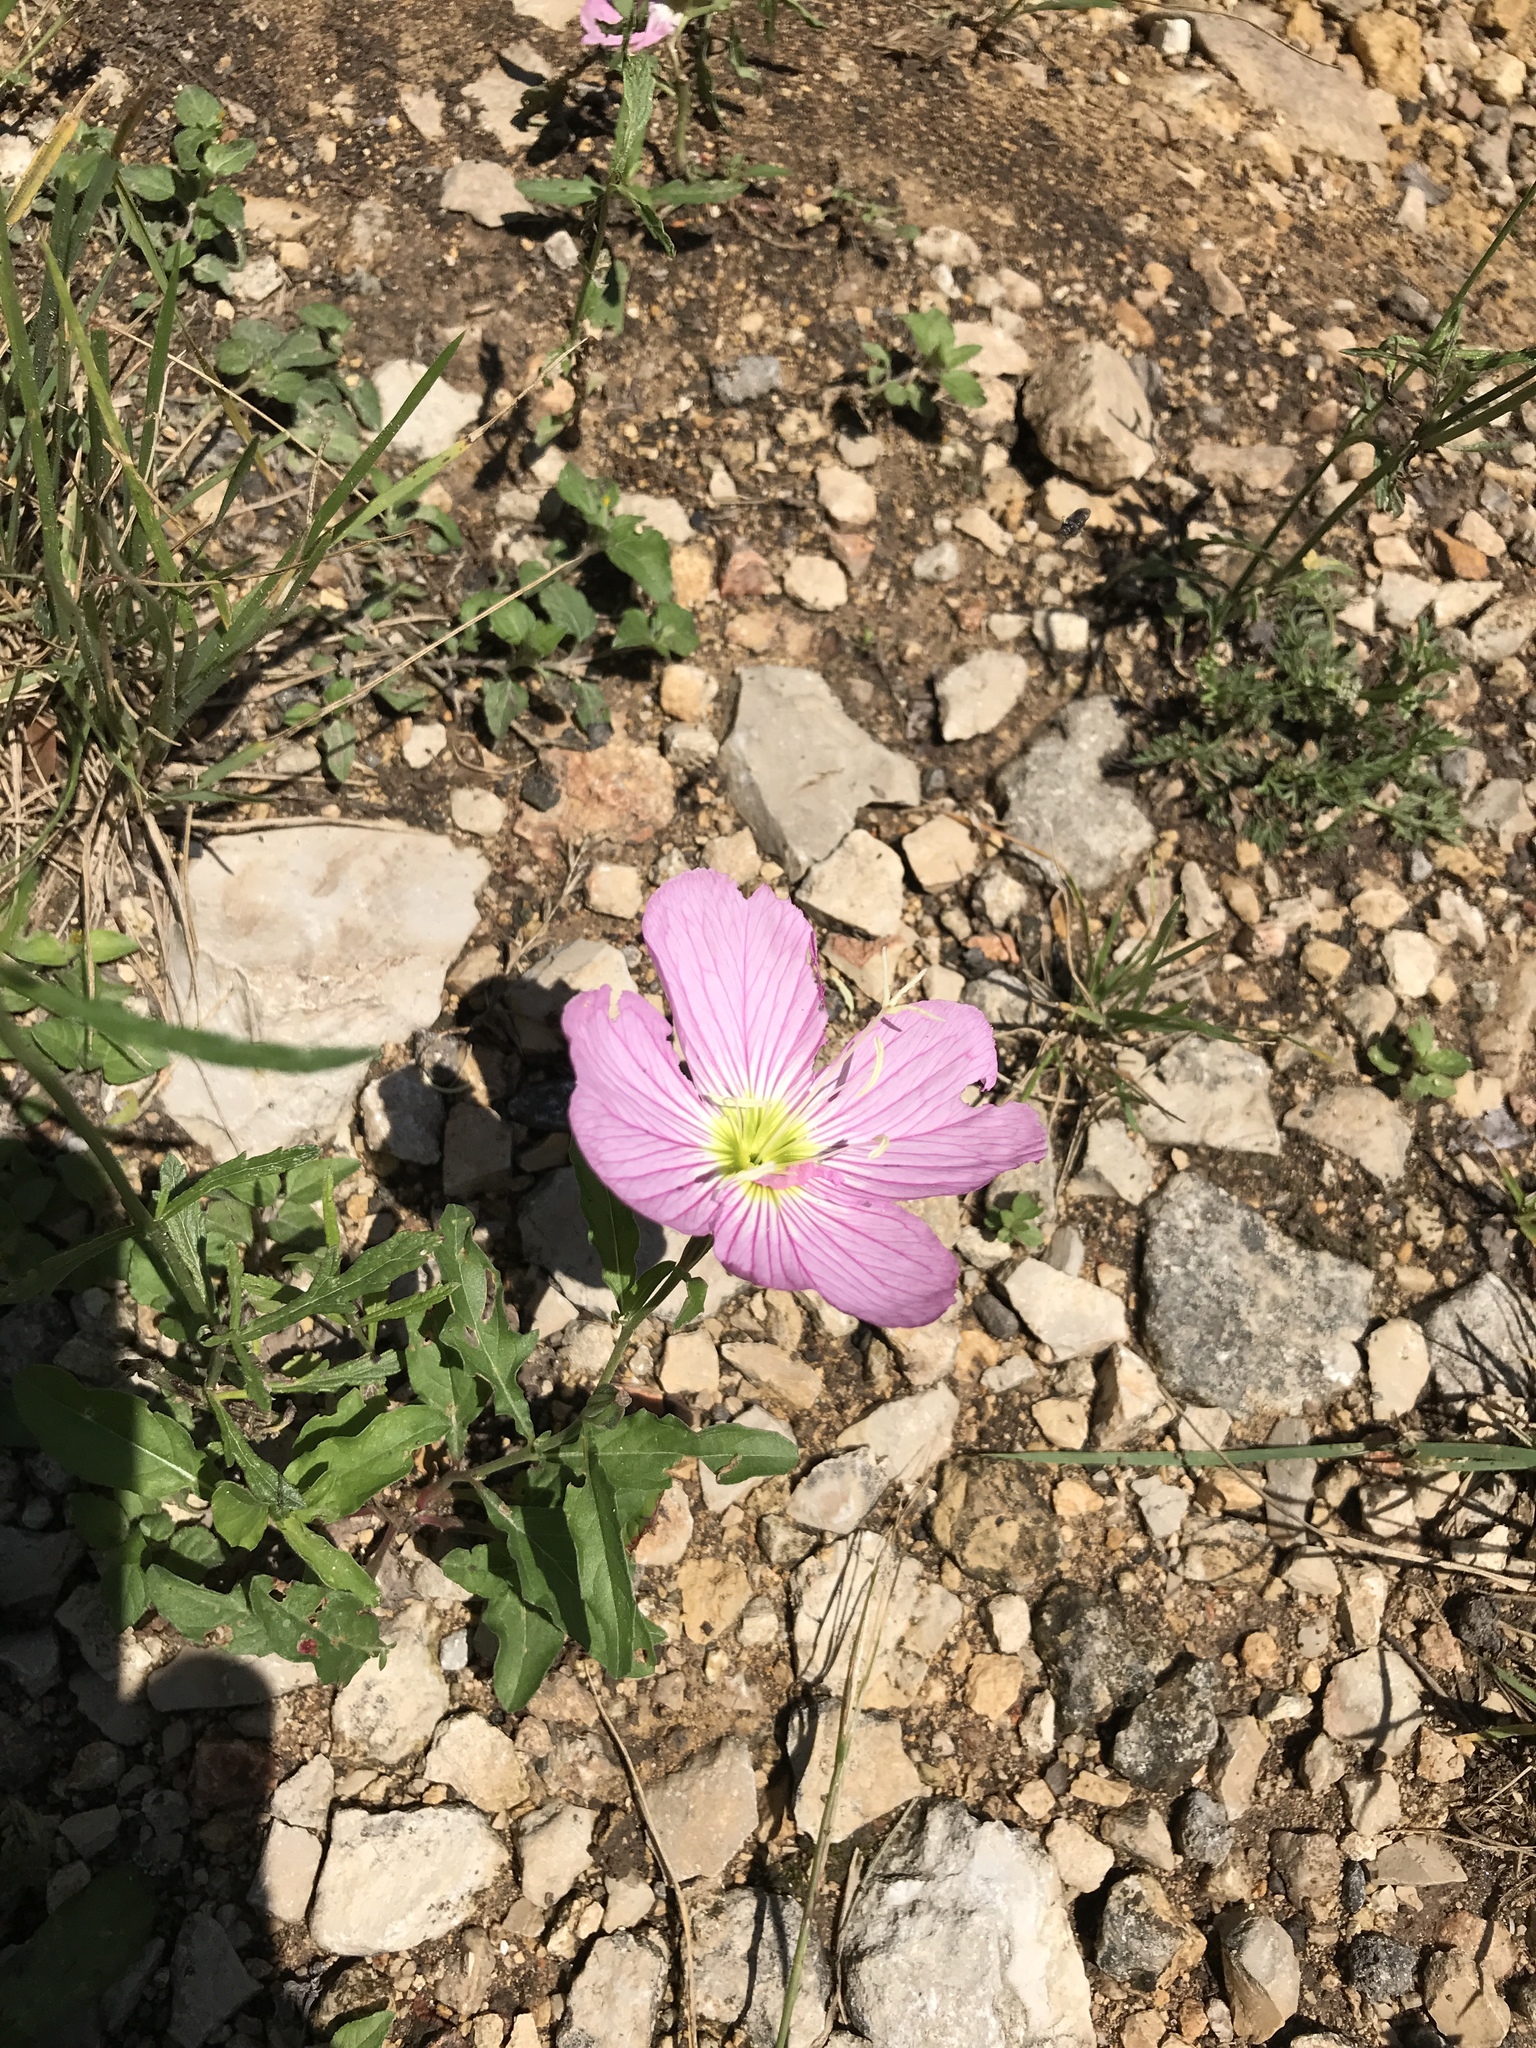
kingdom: Plantae
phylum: Tracheophyta
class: Magnoliopsida
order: Myrtales
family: Onagraceae
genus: Oenothera
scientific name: Oenothera speciosa
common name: White evening-primrose
